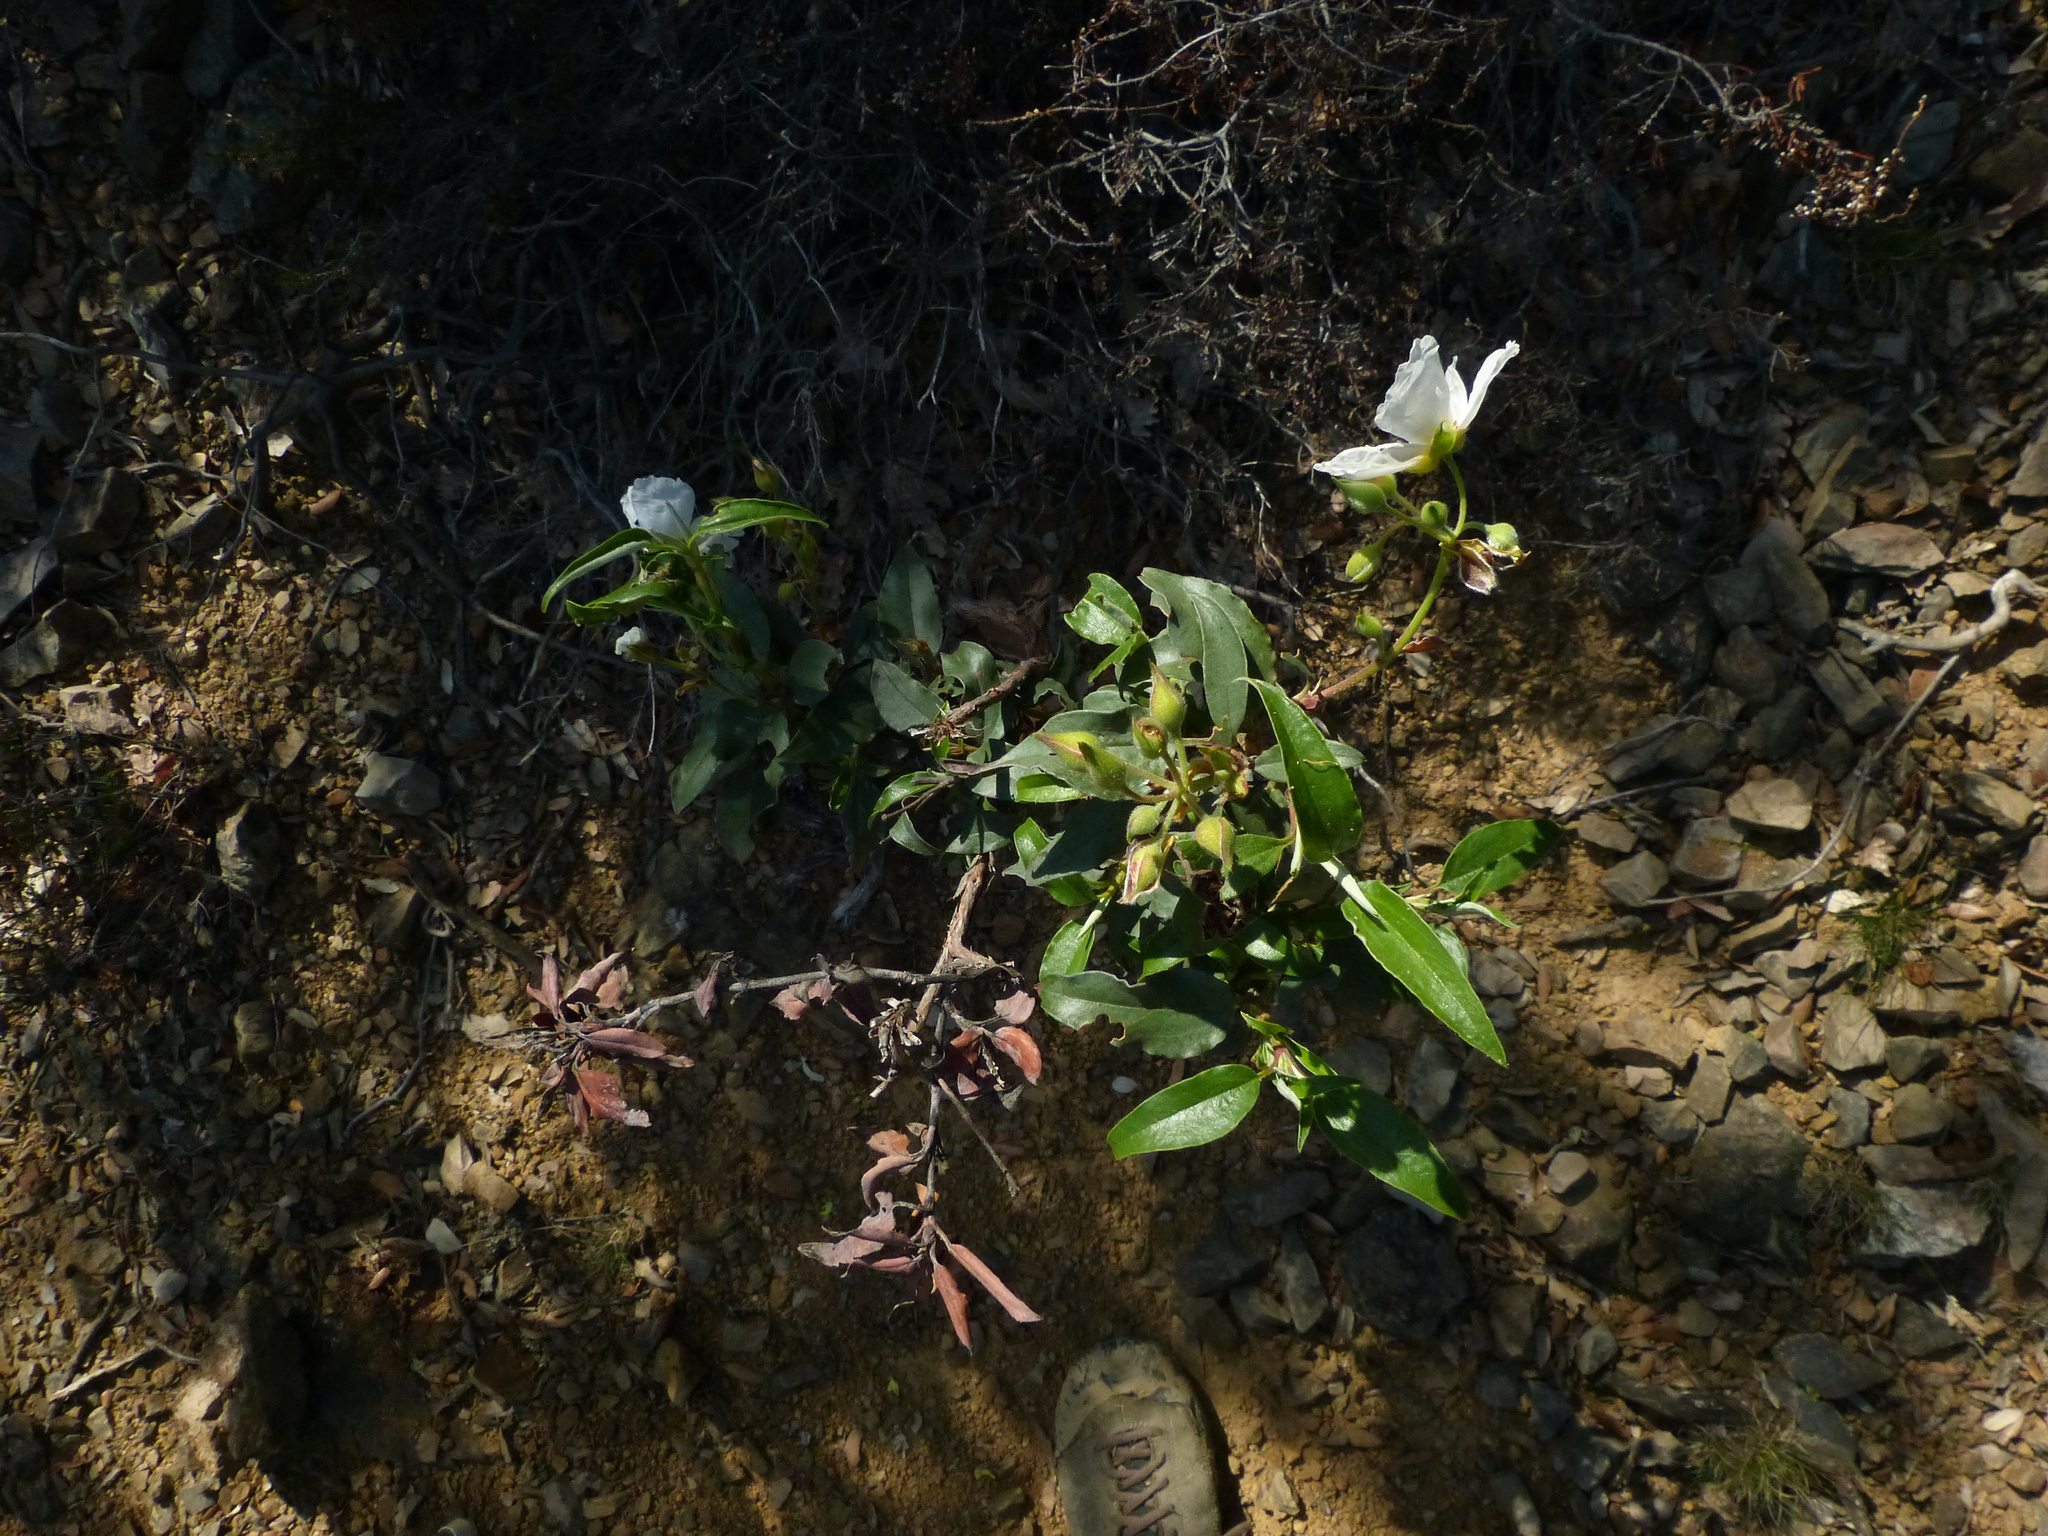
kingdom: Plantae
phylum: Tracheophyta
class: Magnoliopsida
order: Malvales
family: Cistaceae
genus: Cistus
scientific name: Cistus laurifolius
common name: Laurel-leaved cistus
